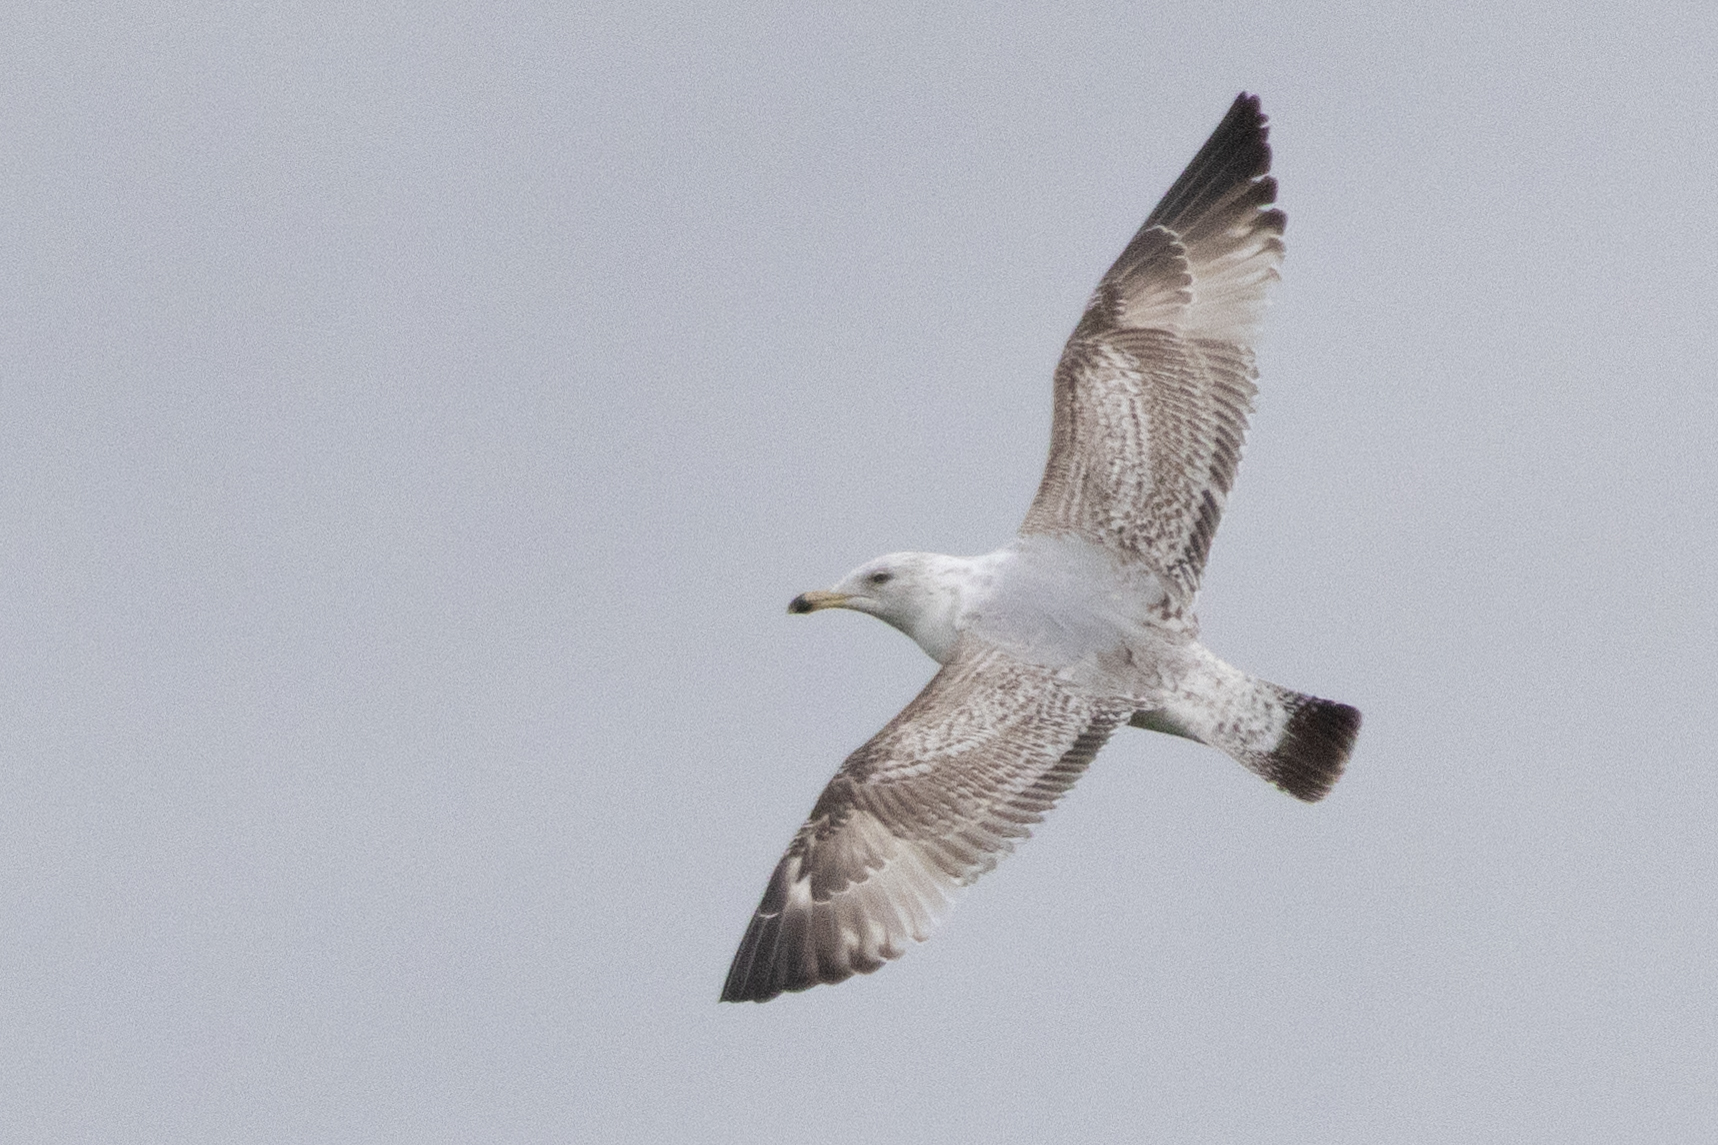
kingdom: Animalia
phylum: Chordata
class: Aves
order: Charadriiformes
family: Laridae
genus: Larus
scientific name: Larus argentatus
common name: Herring gull
